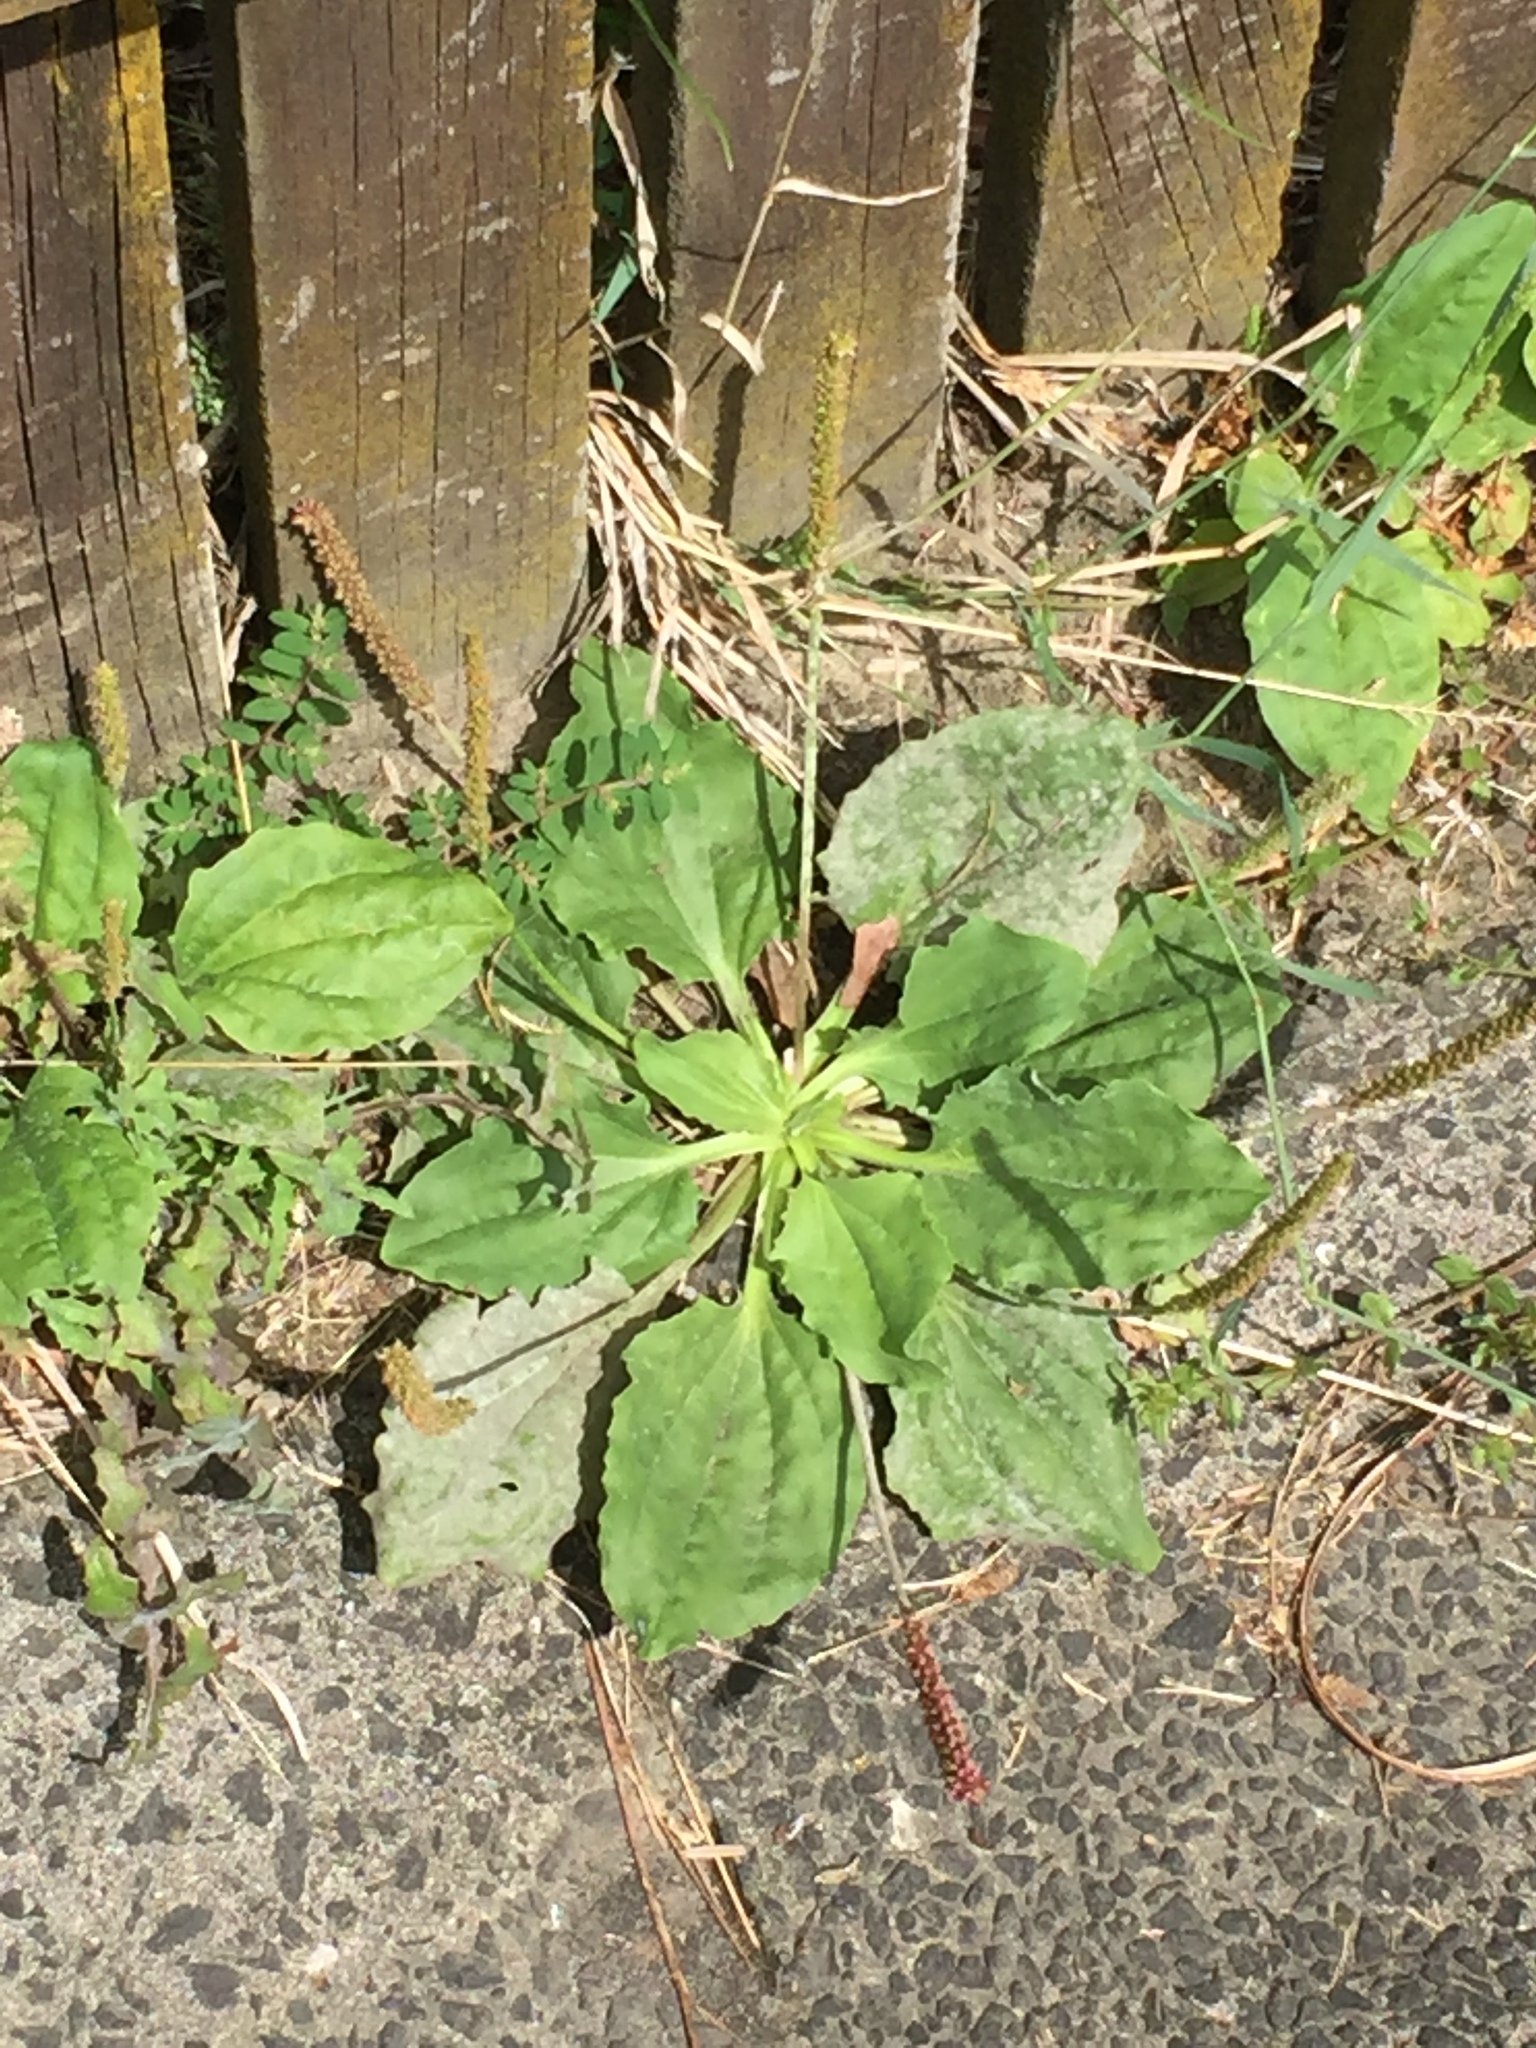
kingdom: Plantae
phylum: Tracheophyta
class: Magnoliopsida
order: Lamiales
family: Plantaginaceae
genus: Plantago
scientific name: Plantago major
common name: Common plantain
